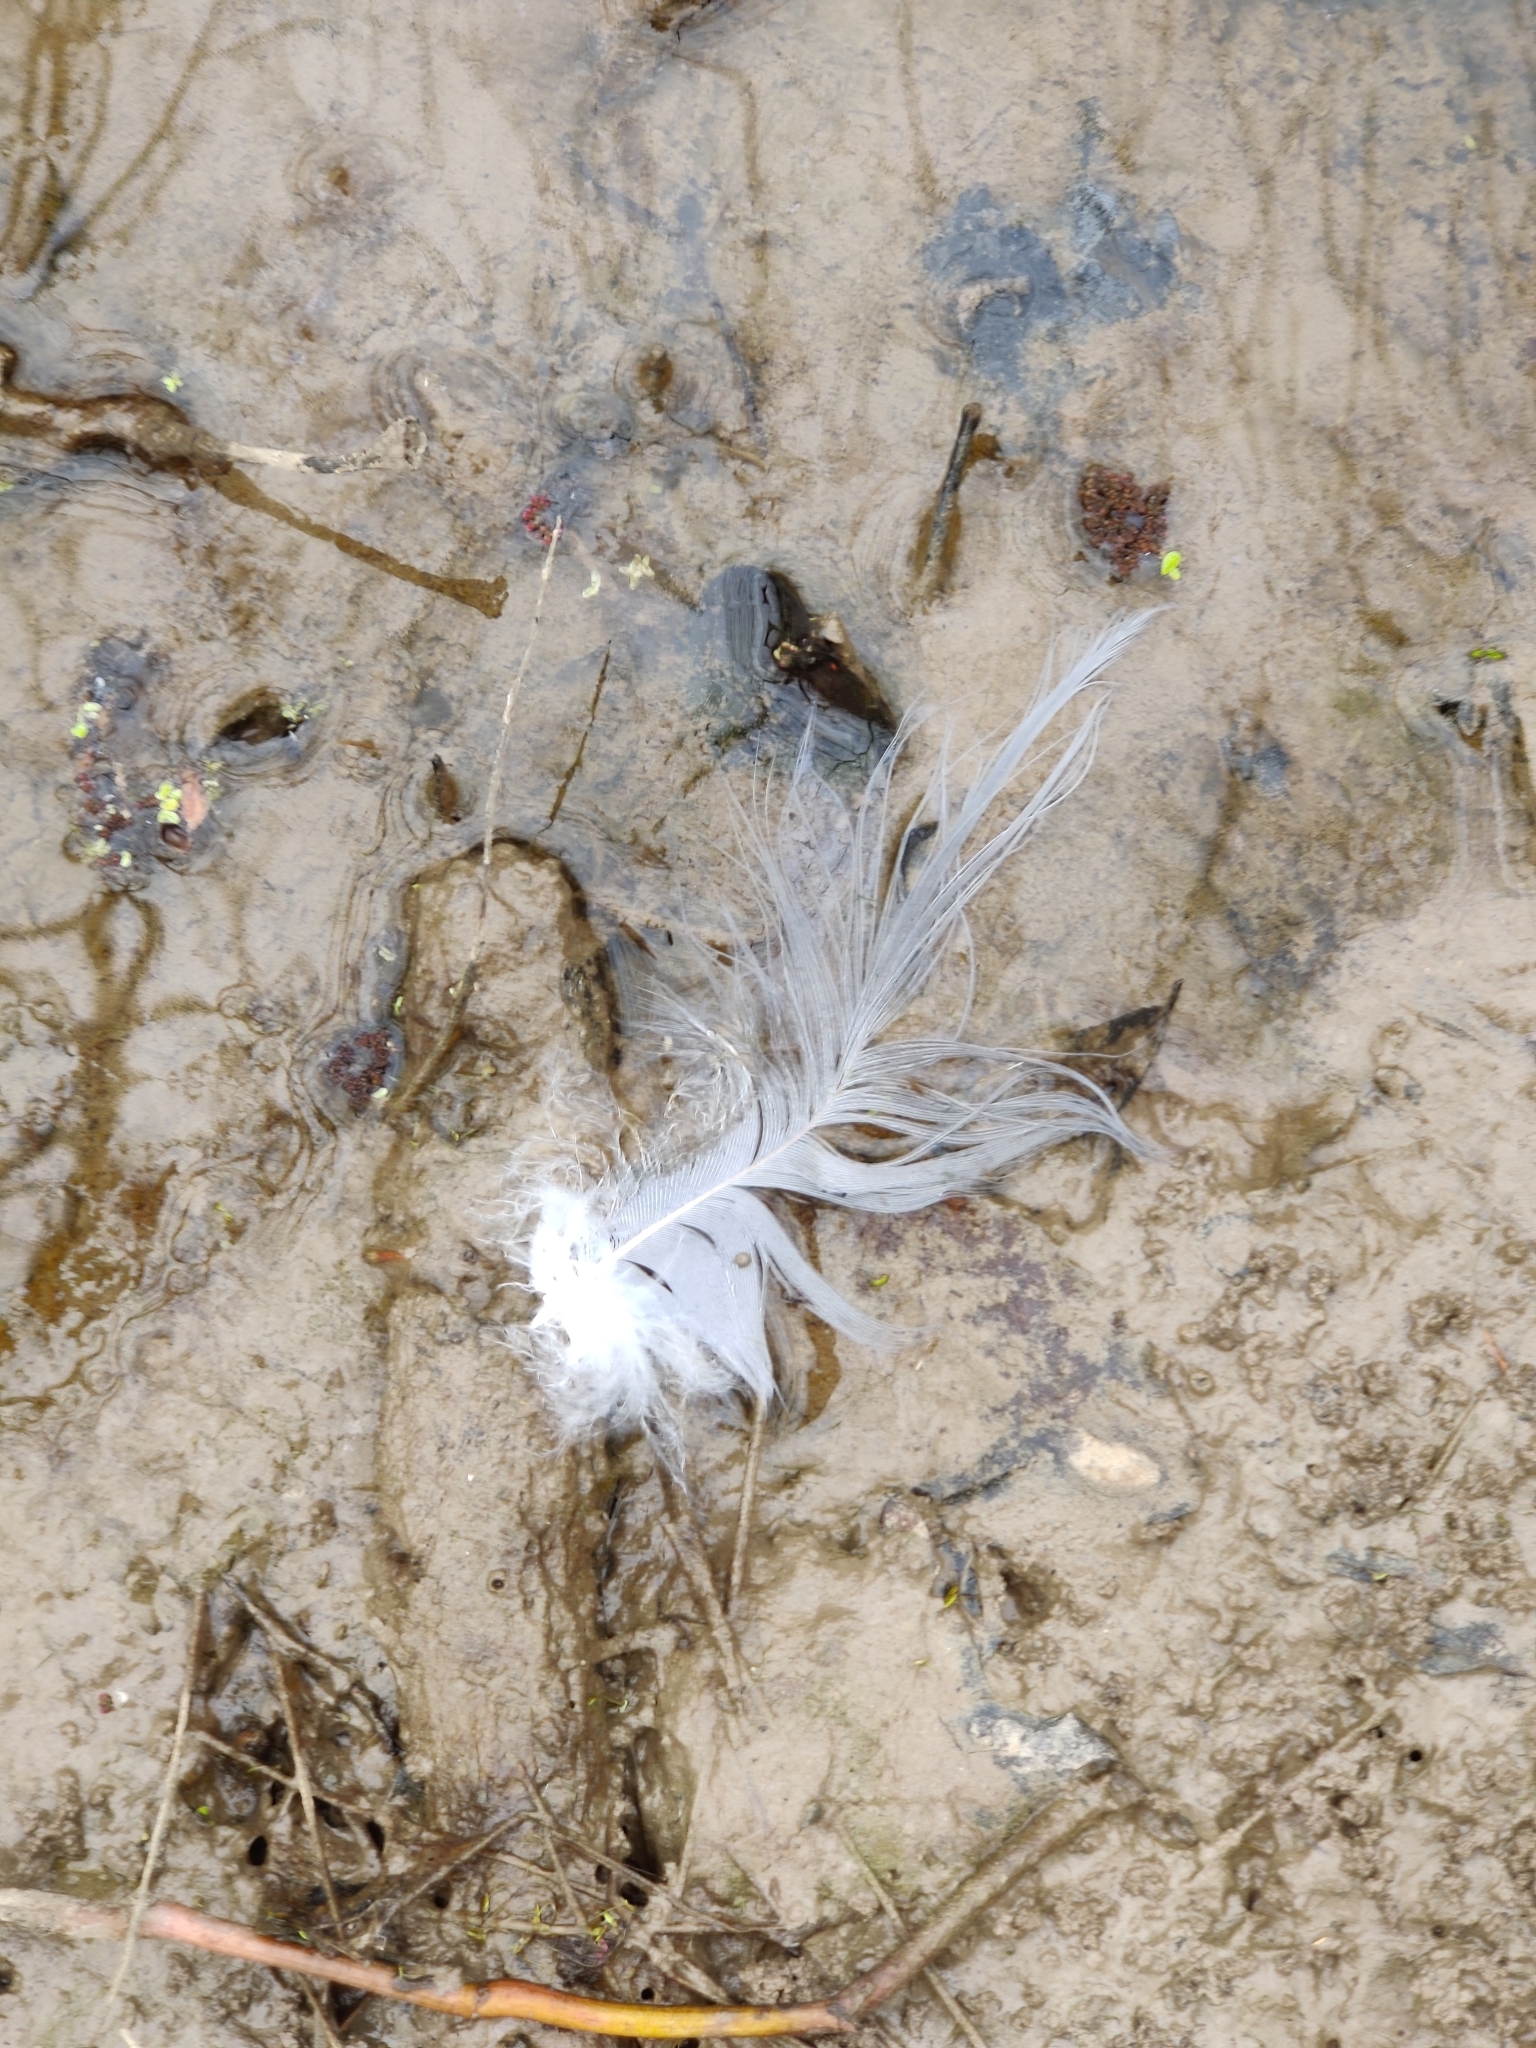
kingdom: Animalia
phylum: Chordata
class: Aves
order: Pelecaniformes
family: Ardeidae
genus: Ardea
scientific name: Ardea herodias
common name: Great blue heron
